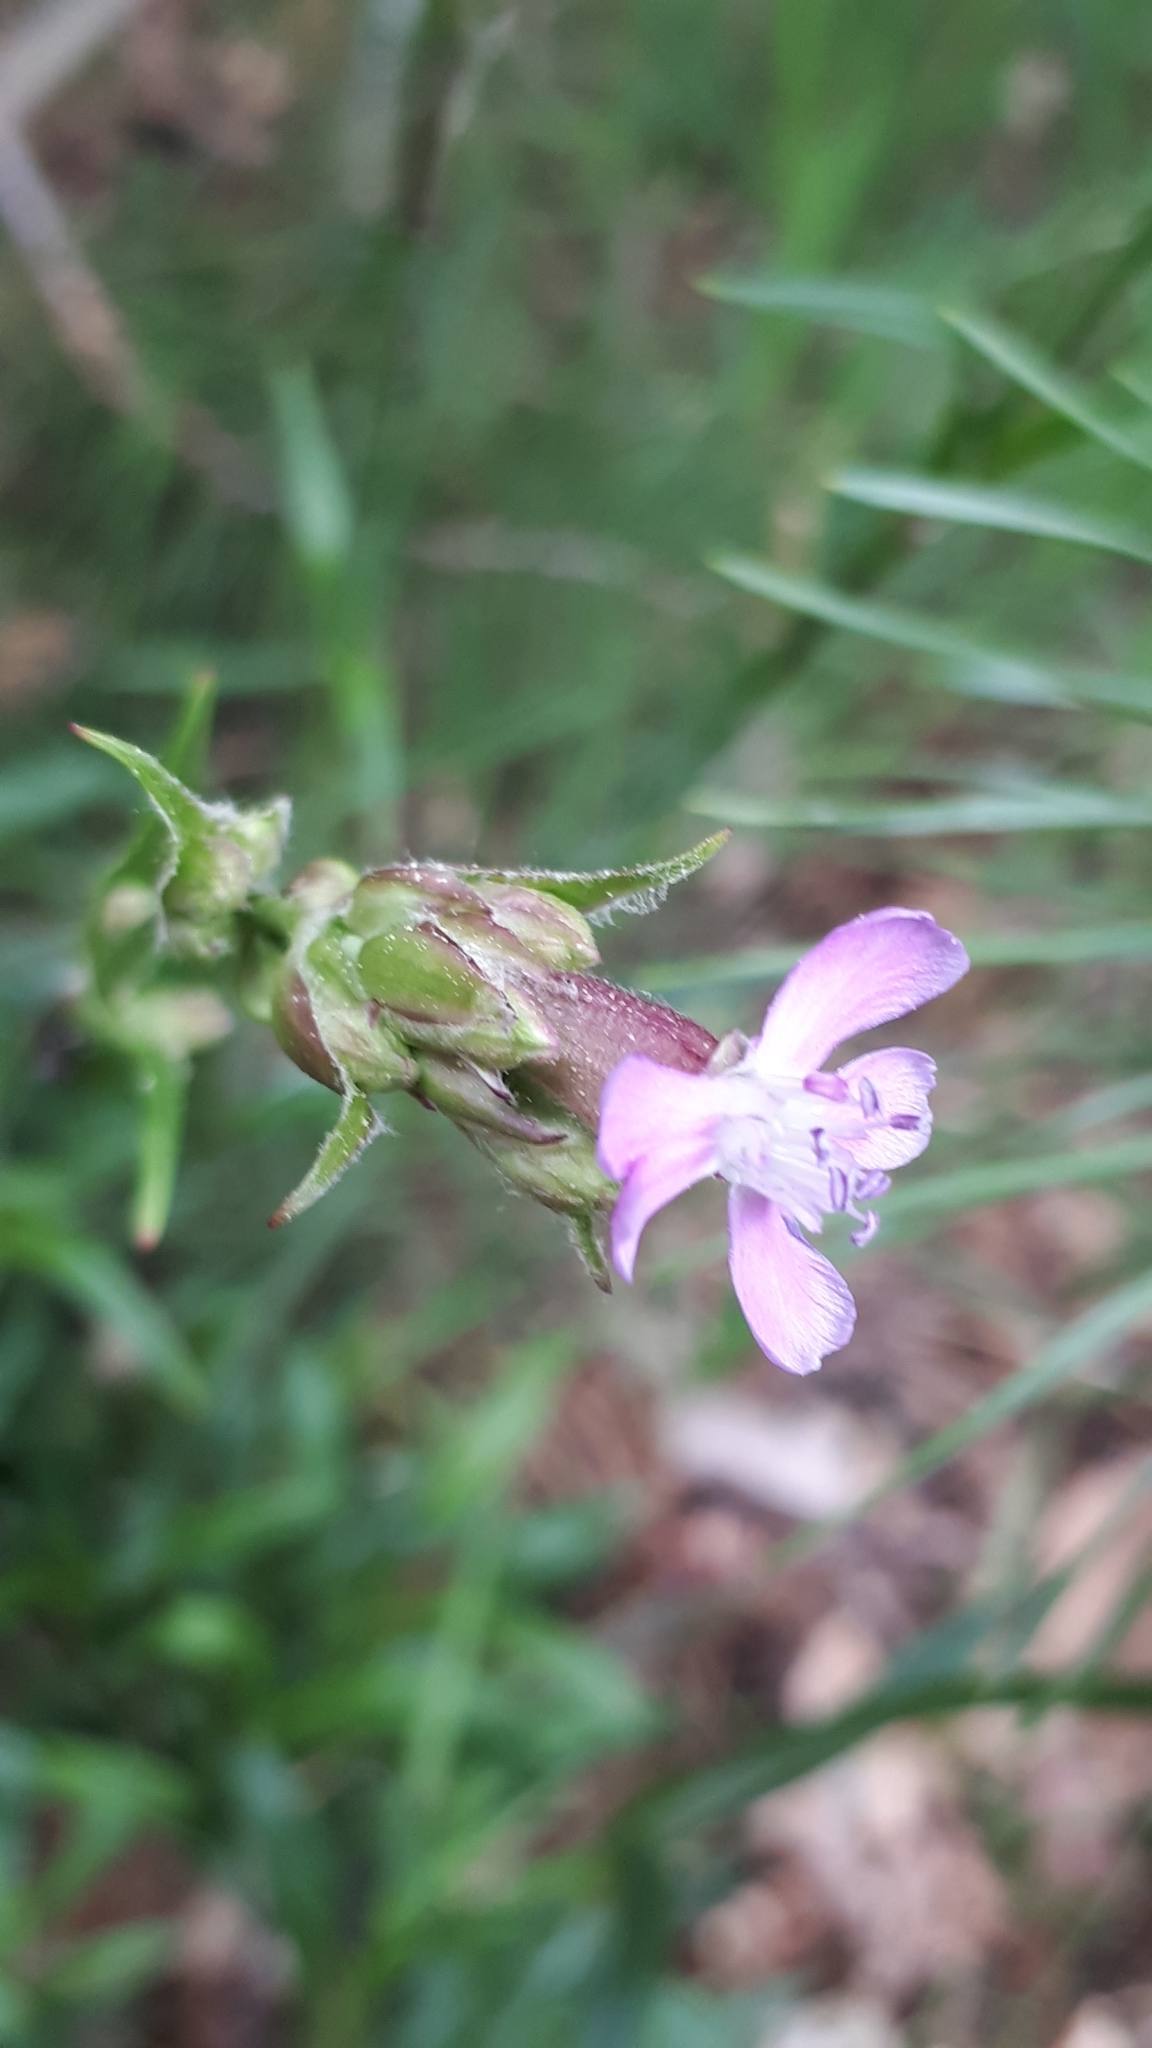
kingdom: Plantae
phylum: Tracheophyta
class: Magnoliopsida
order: Caryophyllales
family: Caryophyllaceae
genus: Viscaria
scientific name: Viscaria vulgaris
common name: Clammy campion
